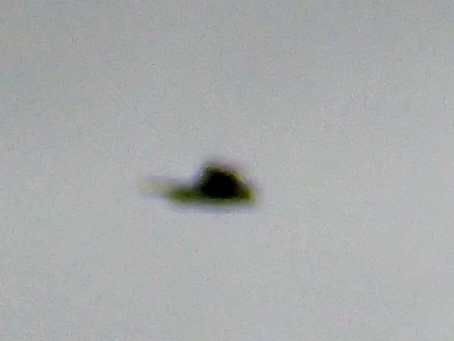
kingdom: Animalia
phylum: Chordata
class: Aves
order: Psittaciformes
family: Psittacidae
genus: Cyanoramphus
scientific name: Cyanoramphus novaezelandiae
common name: Red-fronted parakeet
